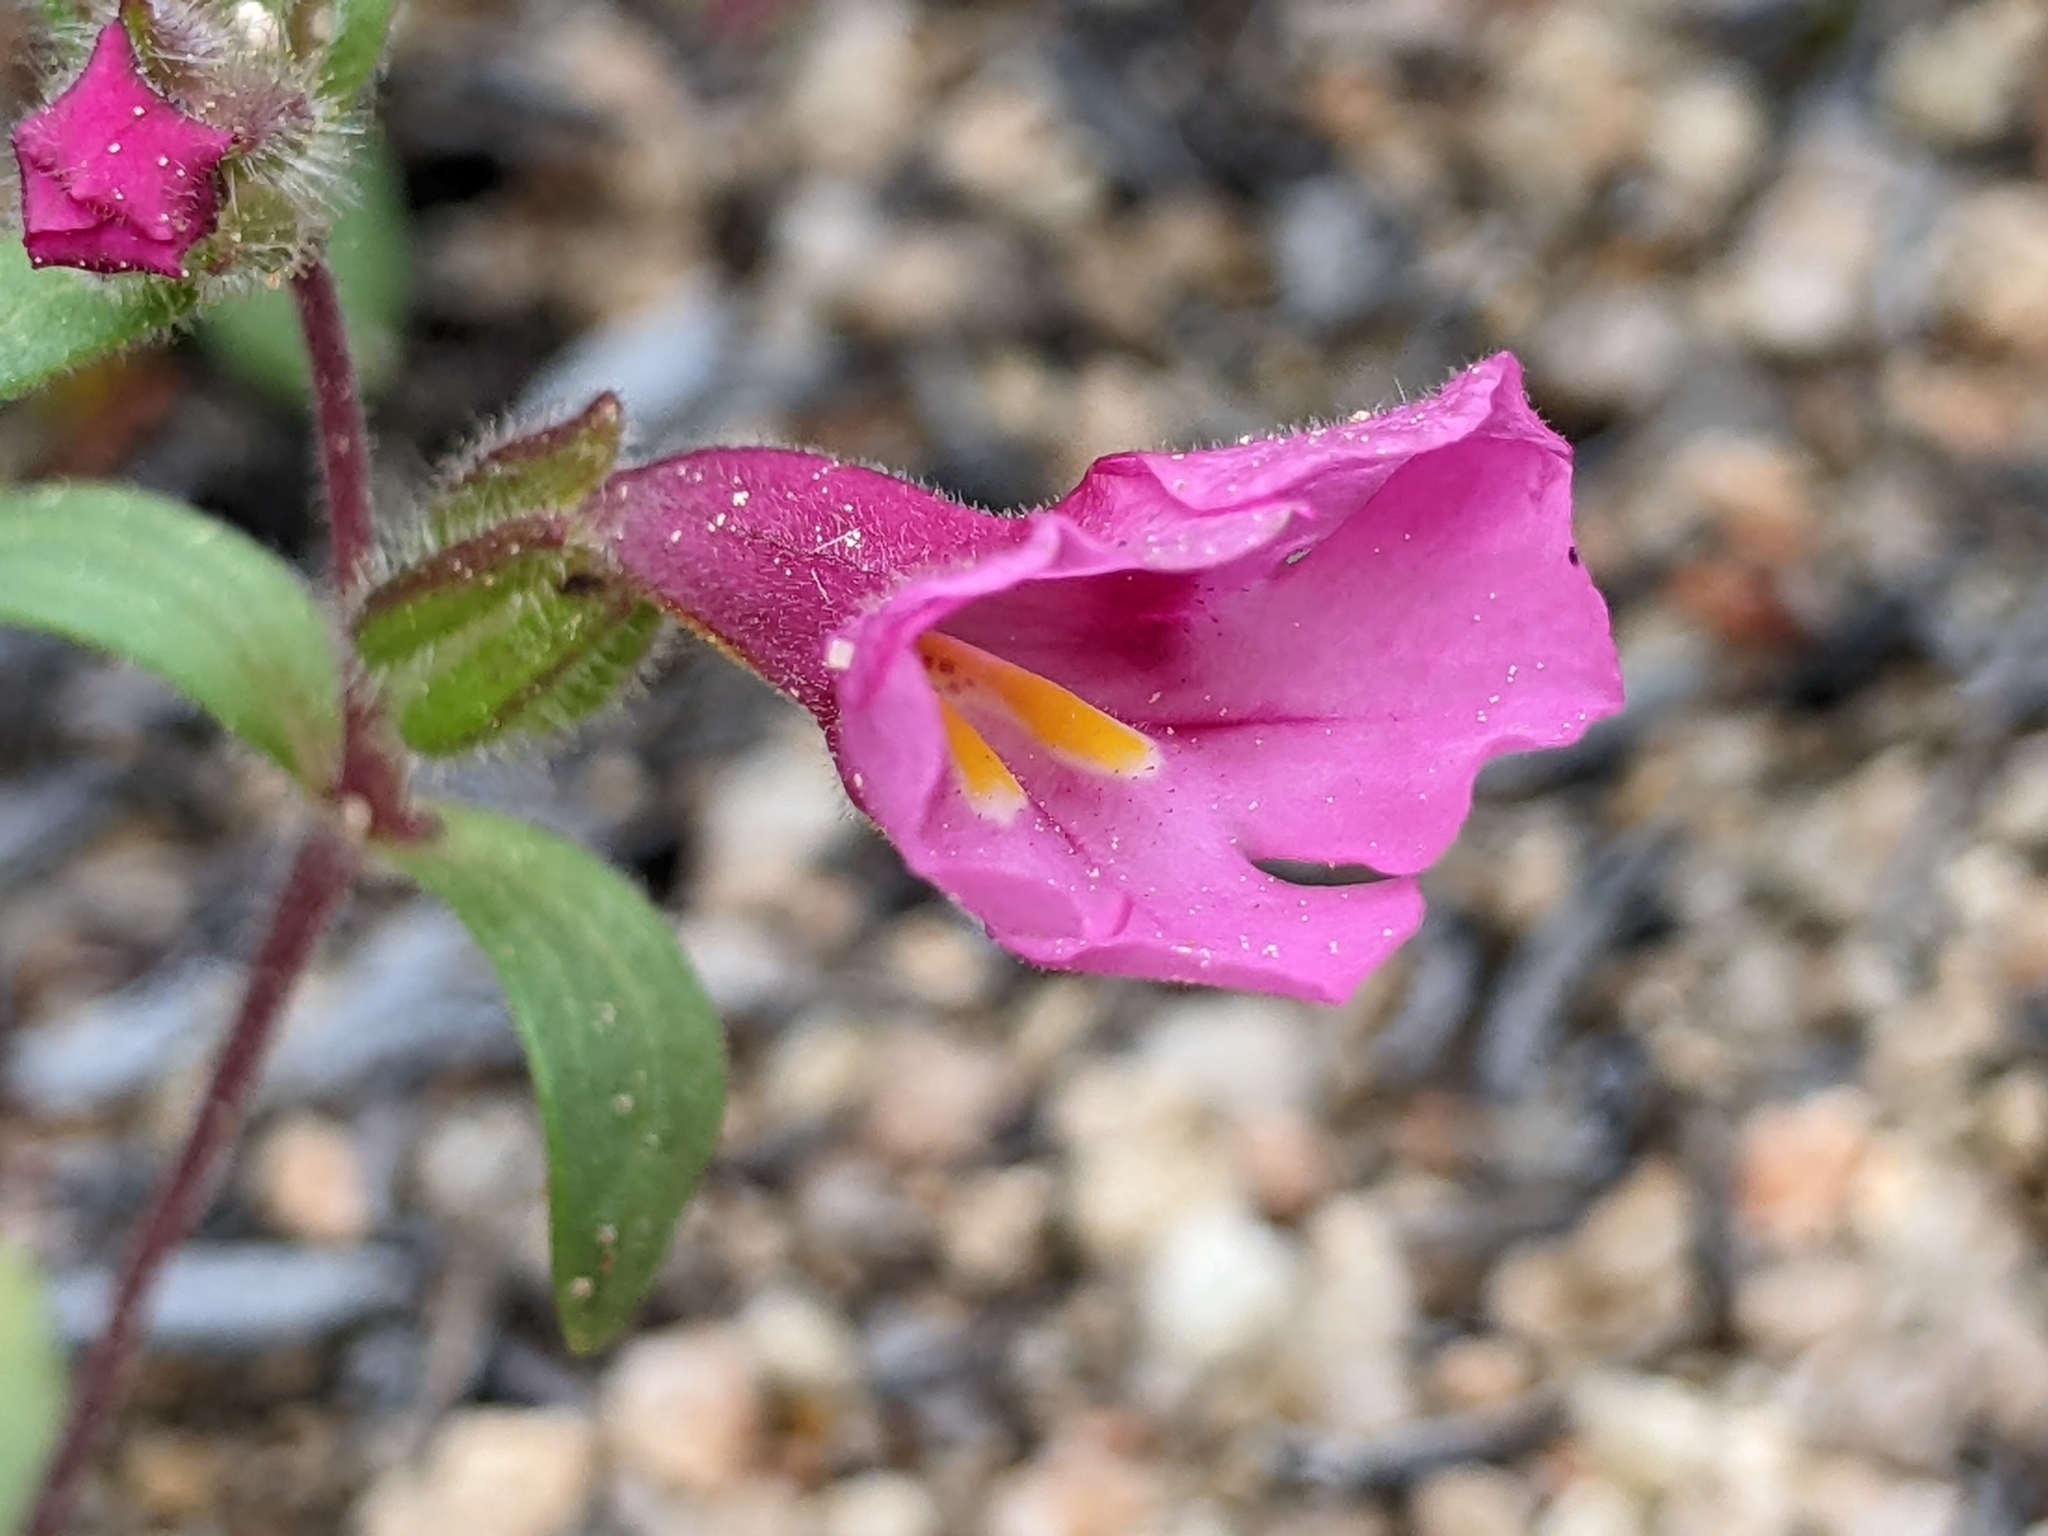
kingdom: Plantae
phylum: Tracheophyta
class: Magnoliopsida
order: Lamiales
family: Phrymaceae
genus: Diplacus
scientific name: Diplacus fremontii
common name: Fremont's monkey-flower
